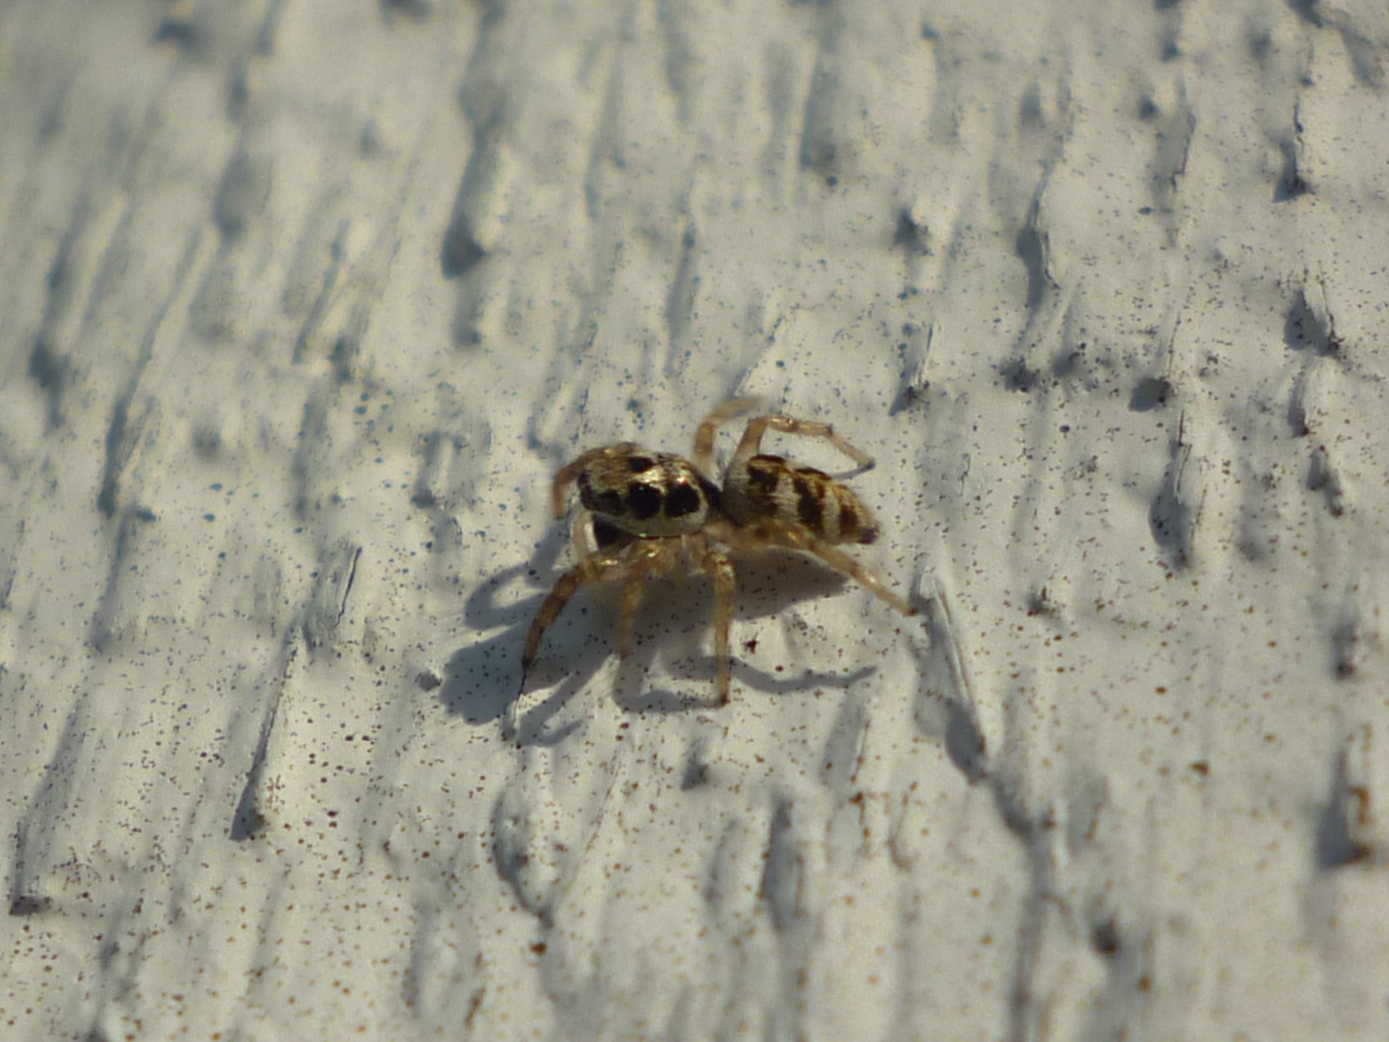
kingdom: Animalia
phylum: Arthropoda
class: Arachnida
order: Araneae
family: Salticidae
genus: Salticus
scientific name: Salticus scenicus
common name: Zebra jumper
